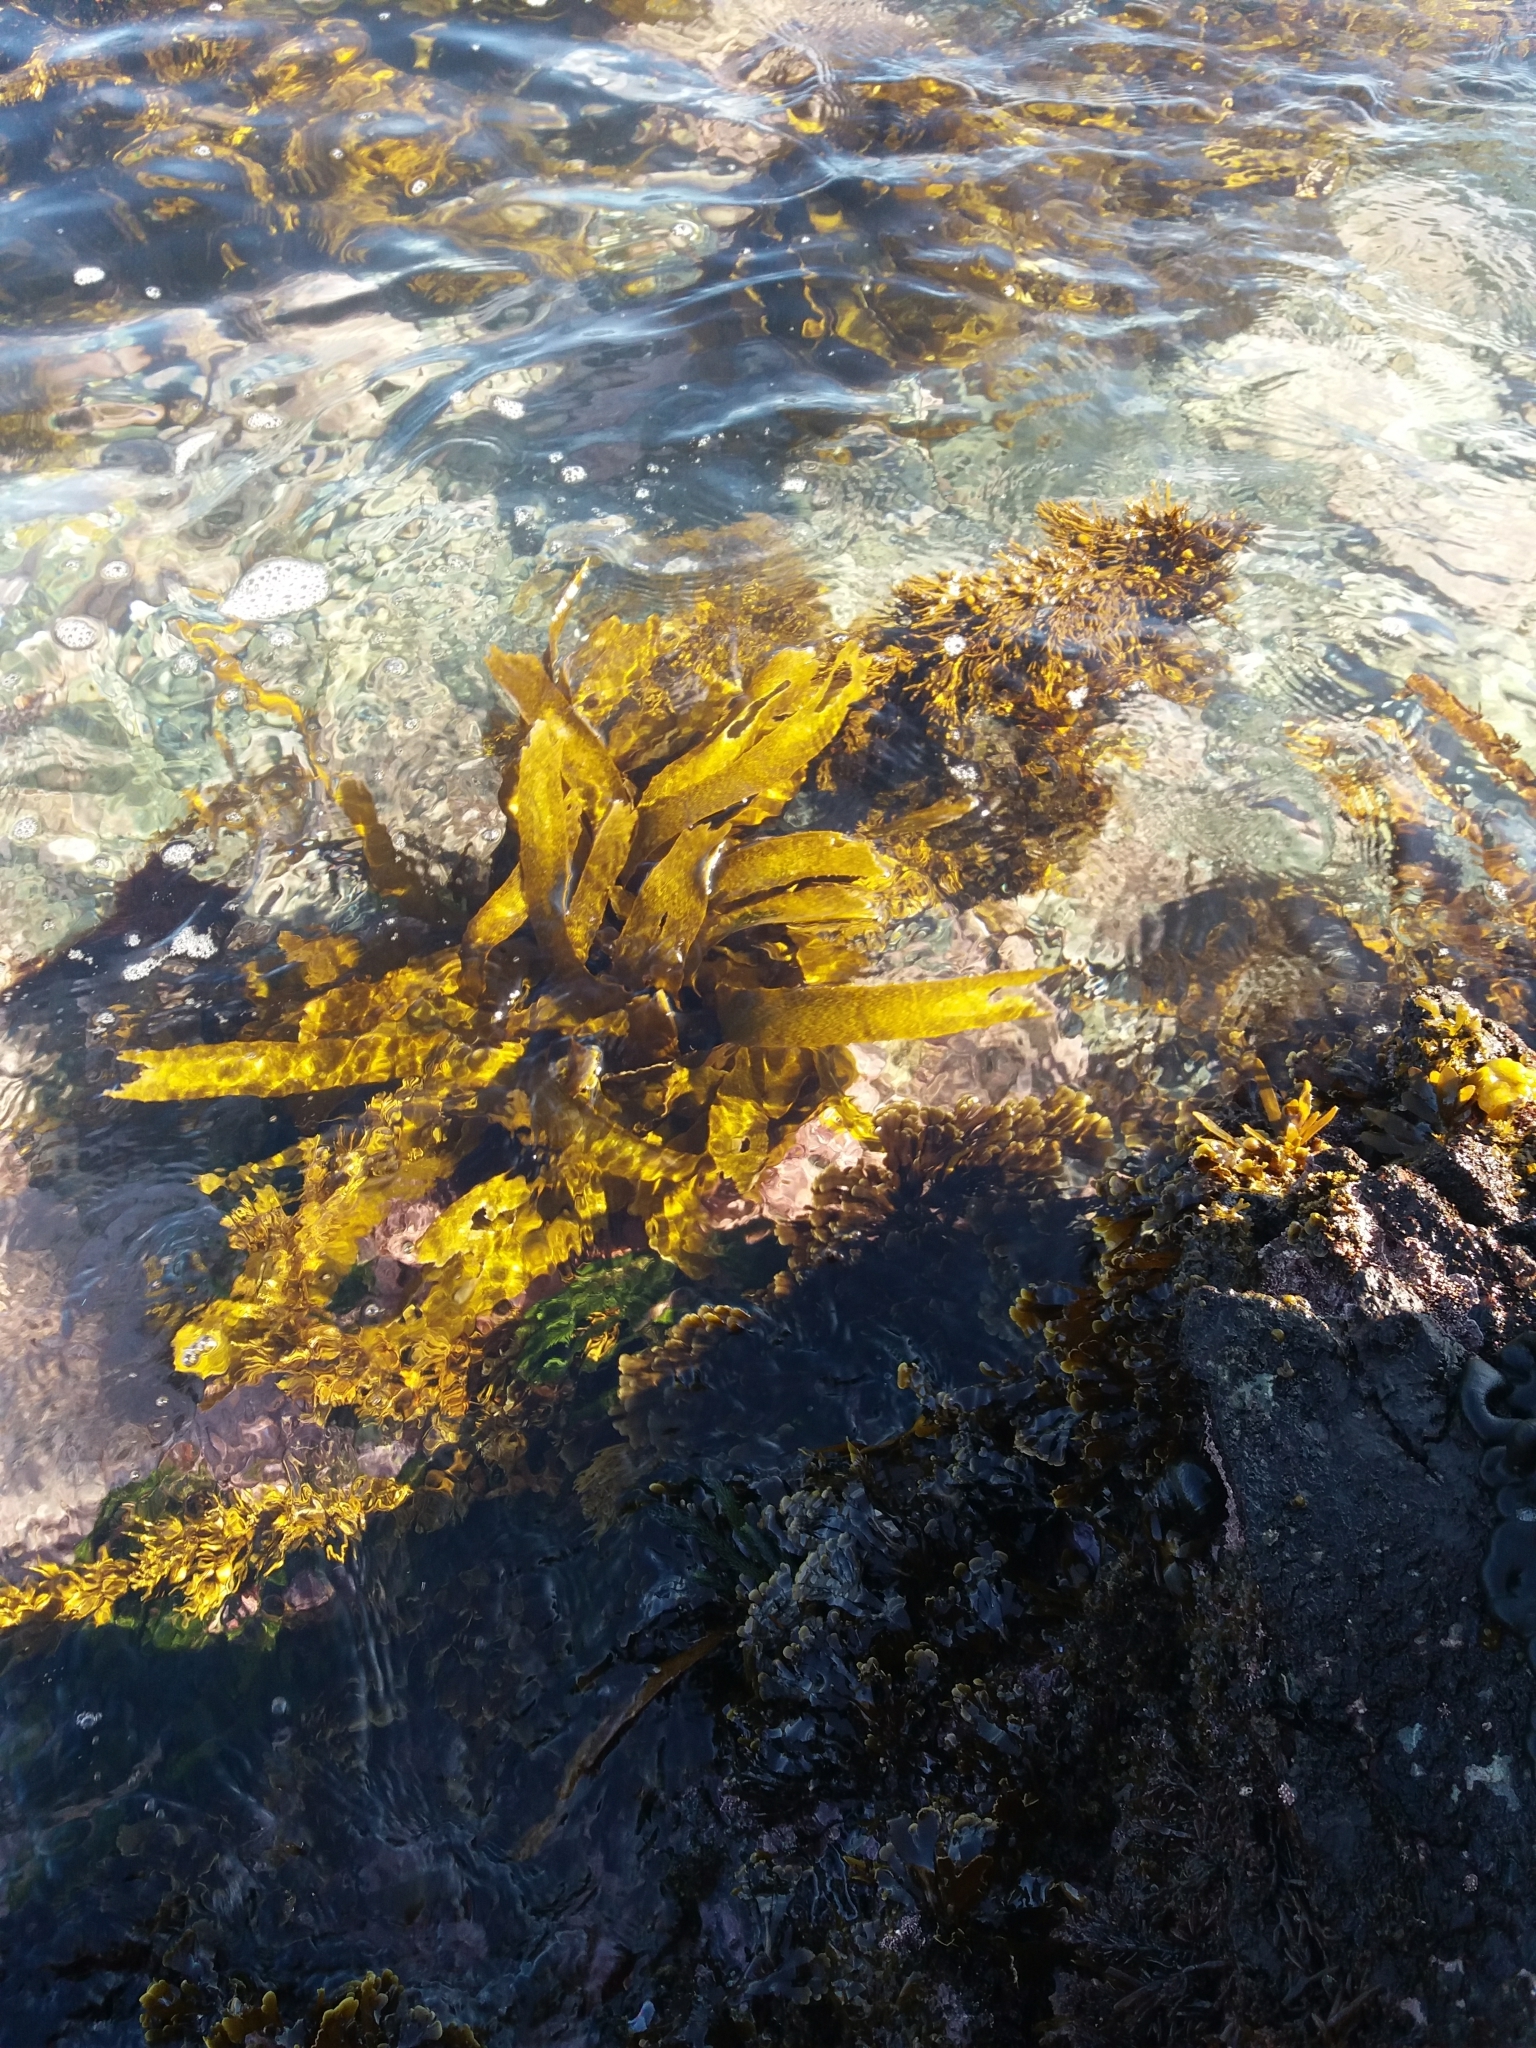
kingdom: Chromista
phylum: Ochrophyta
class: Phaeophyceae
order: Laminariales
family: Lessoniaceae
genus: Lessonia
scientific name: Lessonia variegata
